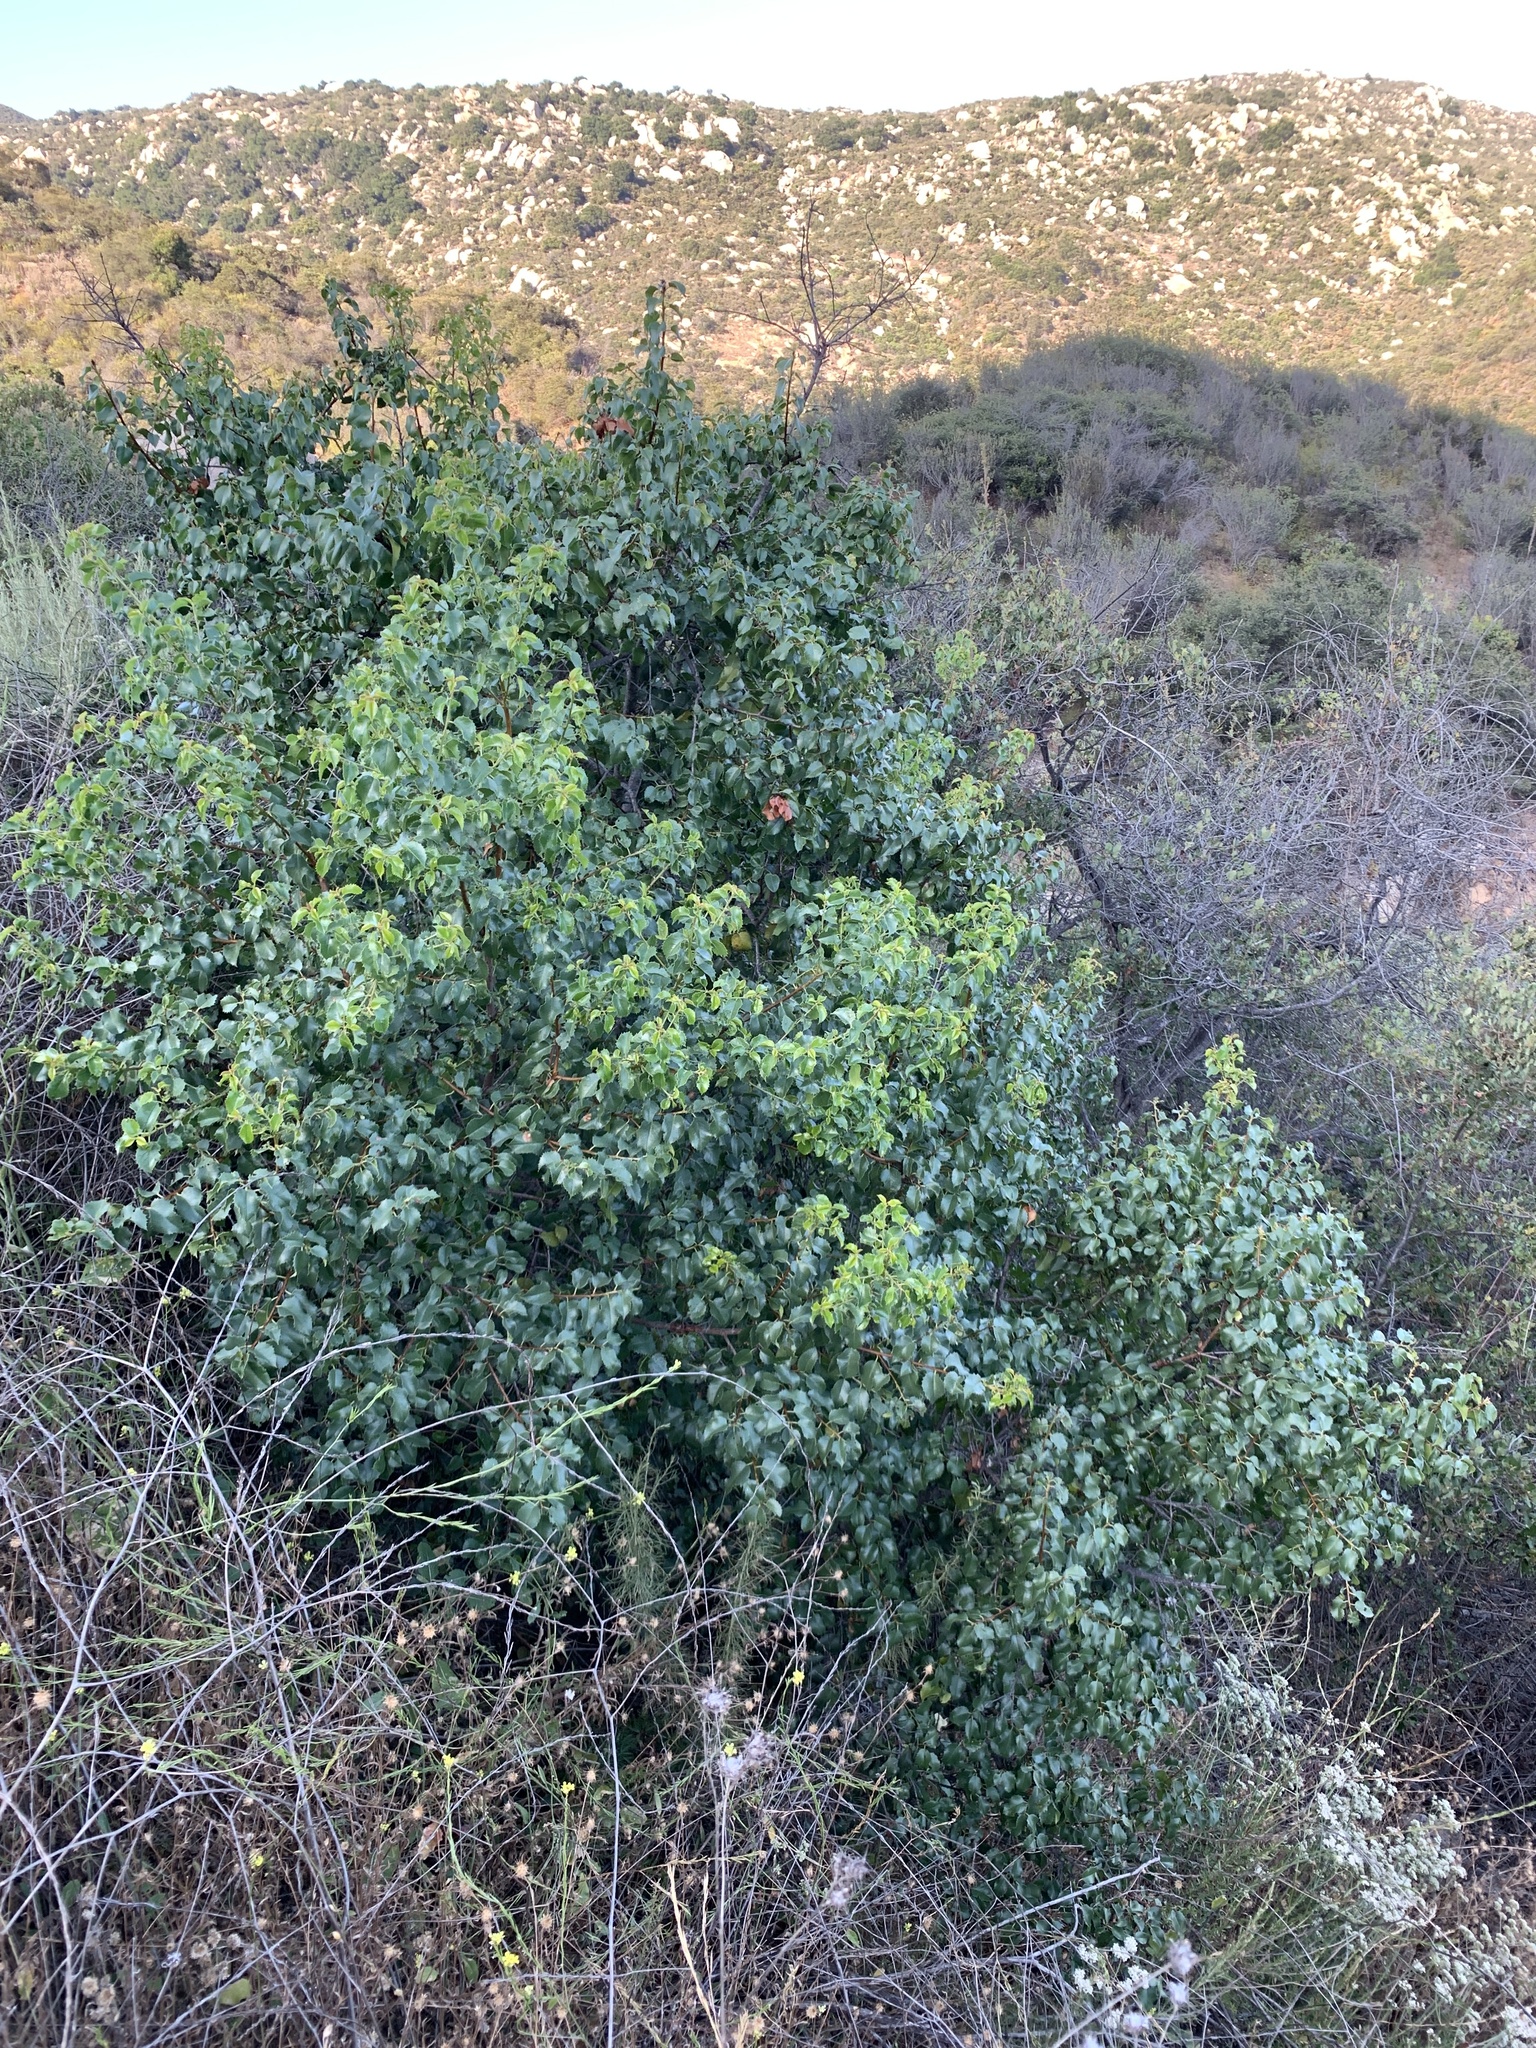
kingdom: Plantae
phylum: Tracheophyta
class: Magnoliopsida
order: Rosales
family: Rosaceae
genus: Prunus
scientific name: Prunus ilicifolia
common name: Hollyleaf cherry
